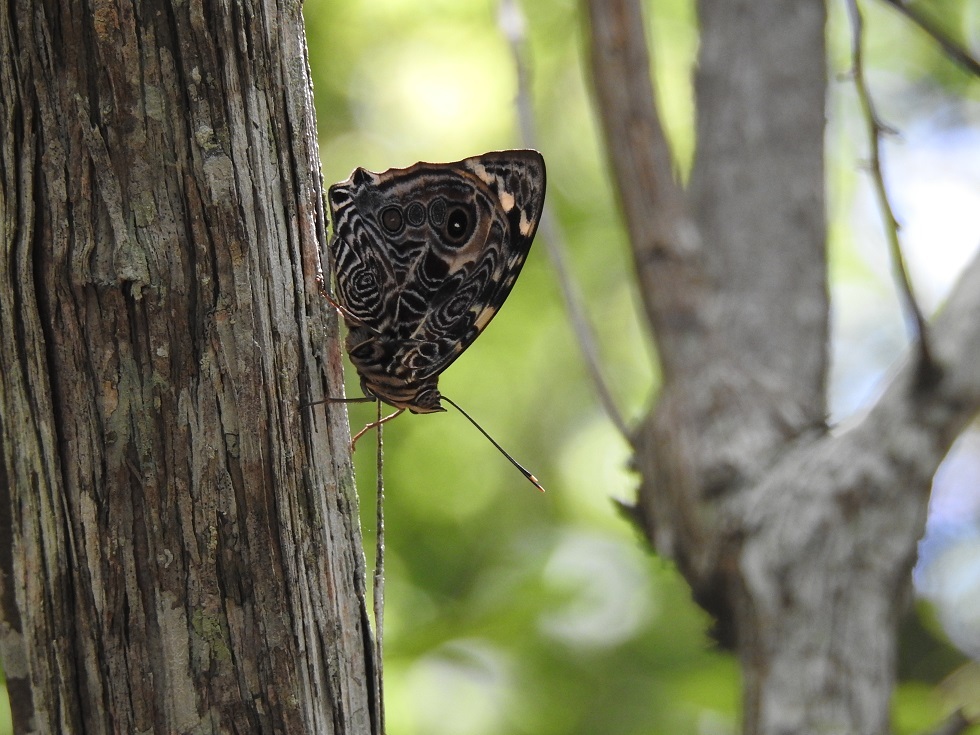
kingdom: Animalia
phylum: Arthropoda
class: Insecta
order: Lepidoptera
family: Nymphalidae
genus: Smyrna
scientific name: Smyrna blomfildia
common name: Blomfild's beauty
